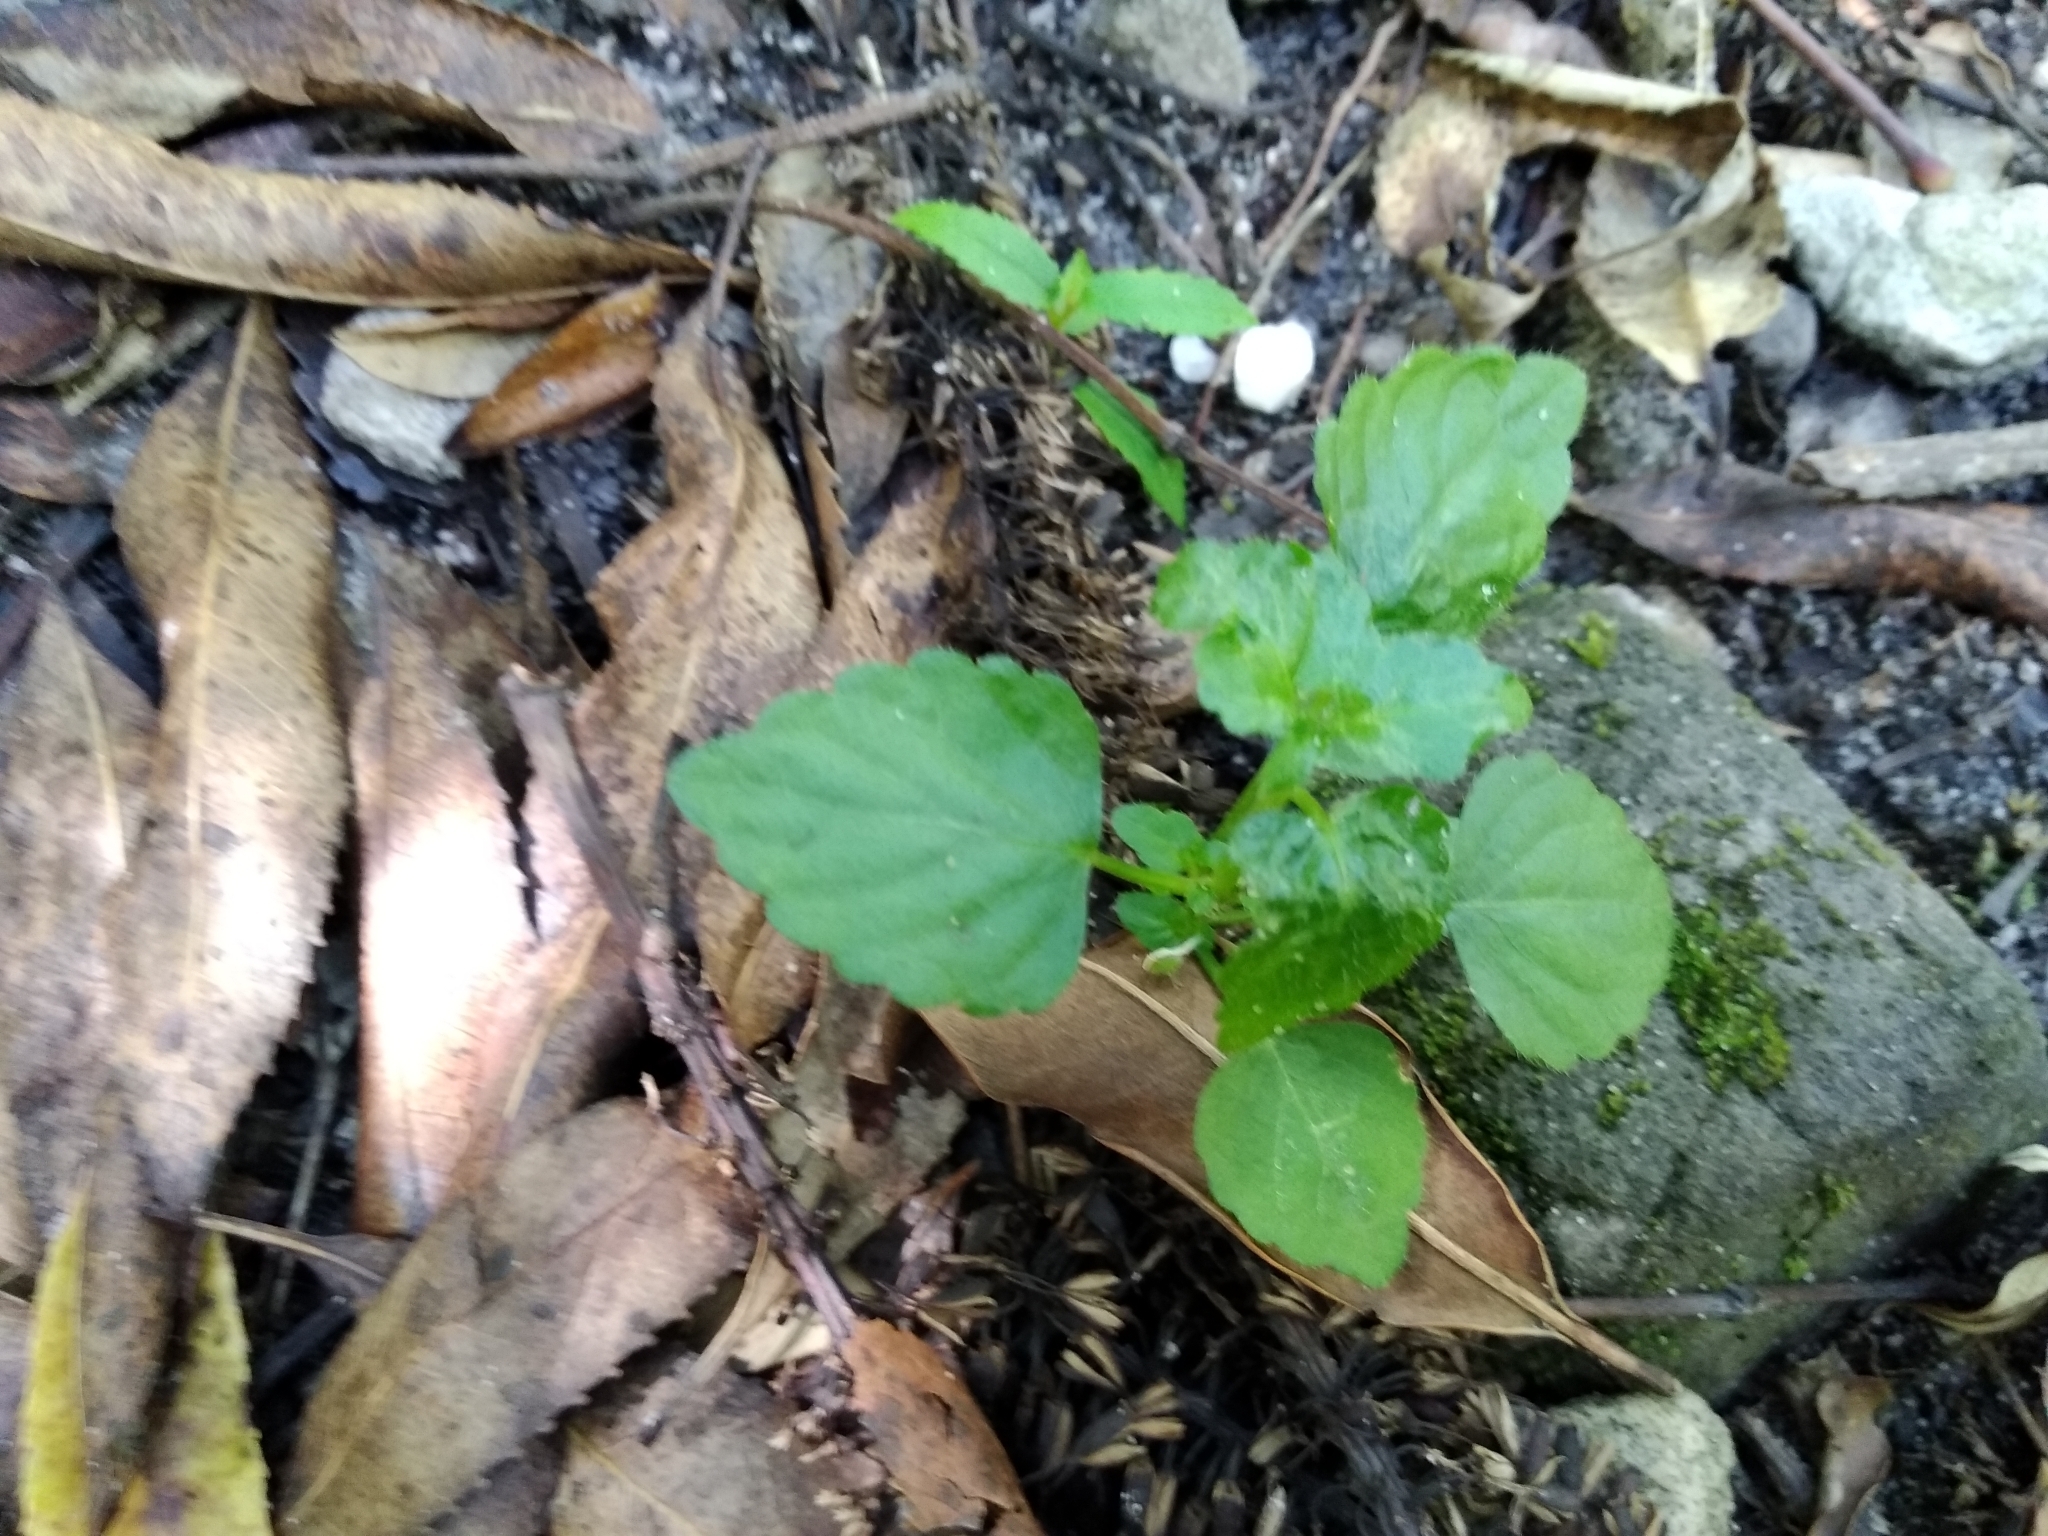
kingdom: Plantae
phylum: Tracheophyta
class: Magnoliopsida
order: Malpighiales
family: Euphorbiaceae
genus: Leidesia
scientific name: Leidesia procumbens
